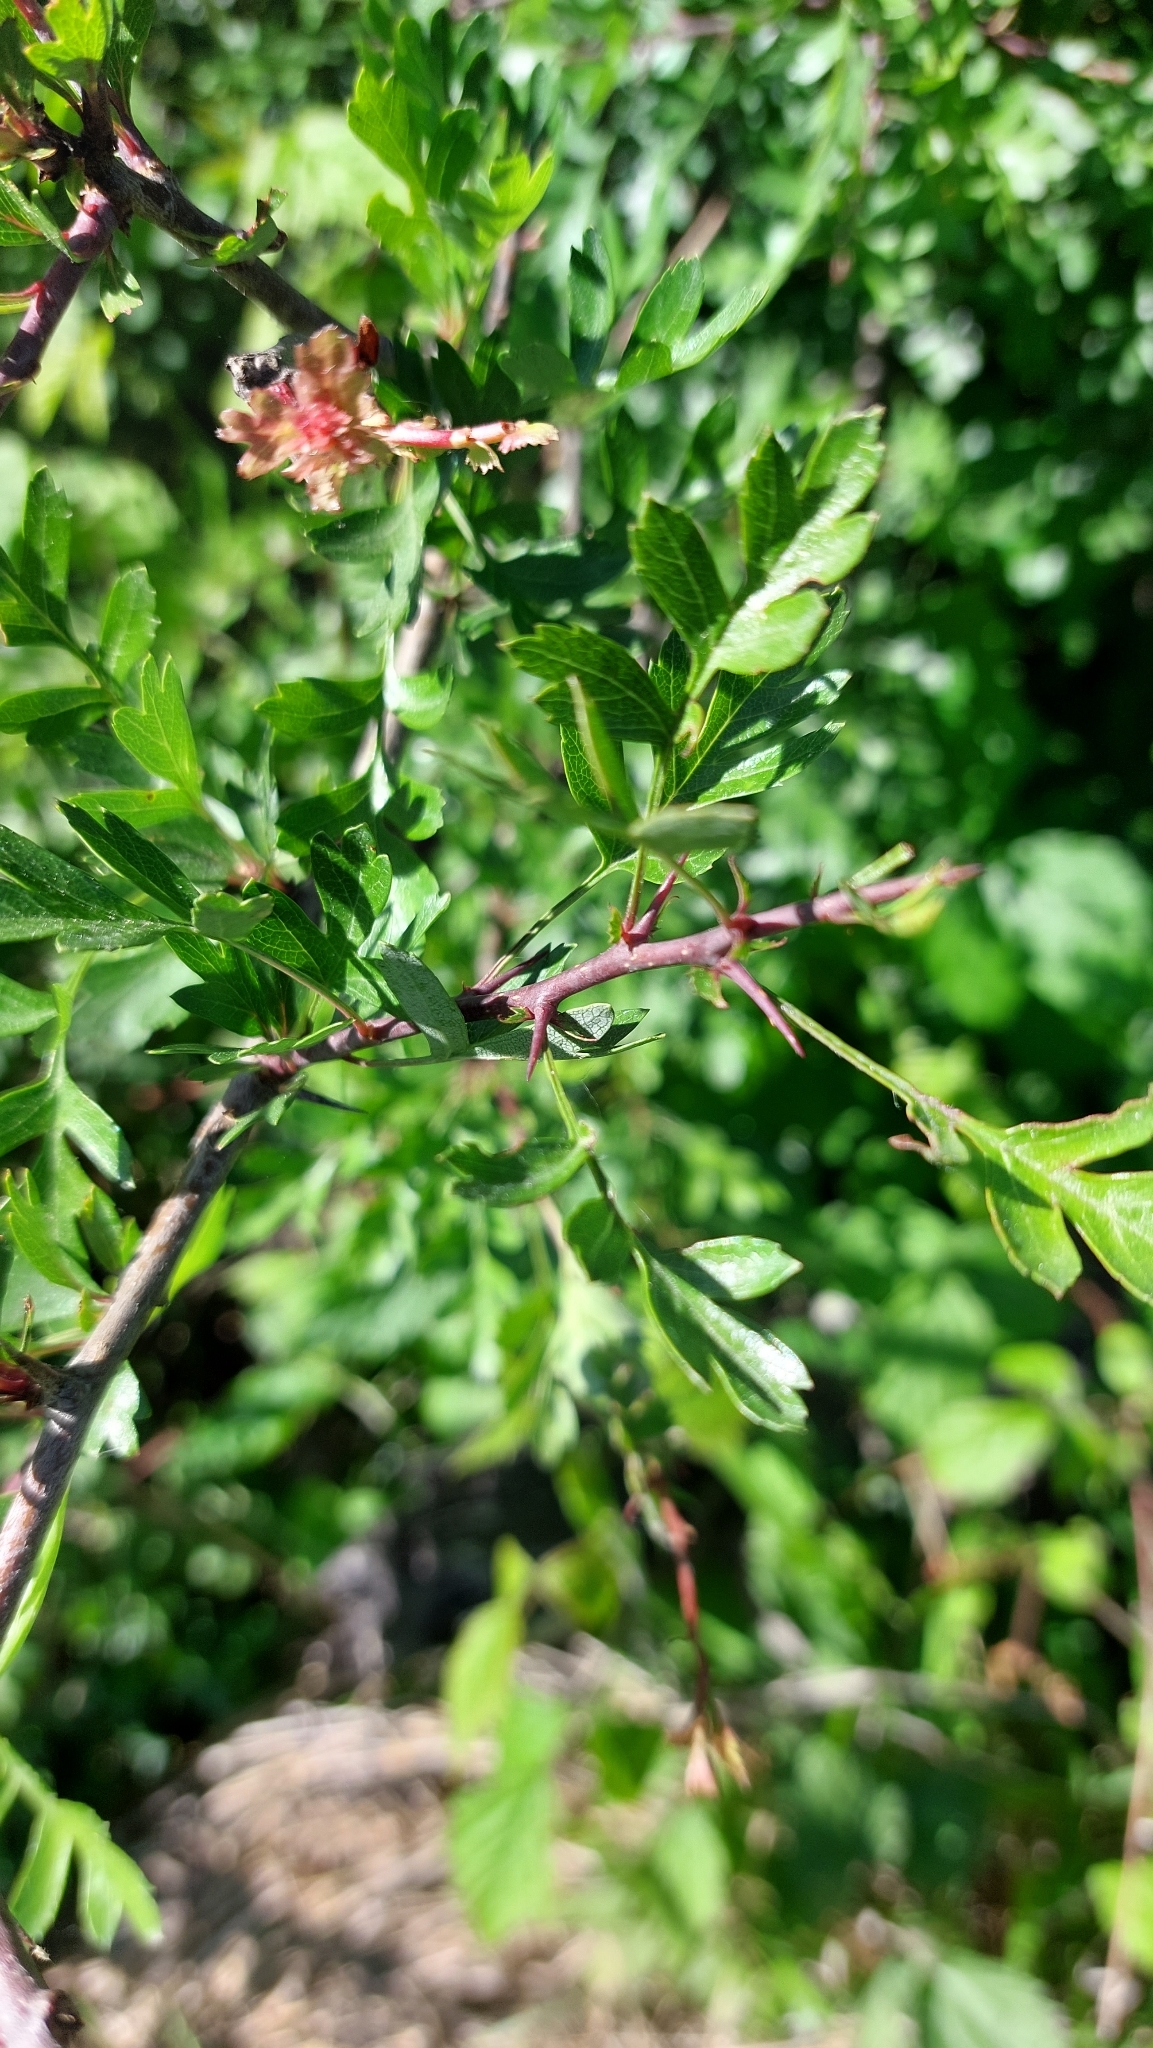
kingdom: Plantae
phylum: Tracheophyta
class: Magnoliopsida
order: Rosales
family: Rosaceae
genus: Crataegus
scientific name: Crataegus monogyna
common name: Hawthorn
